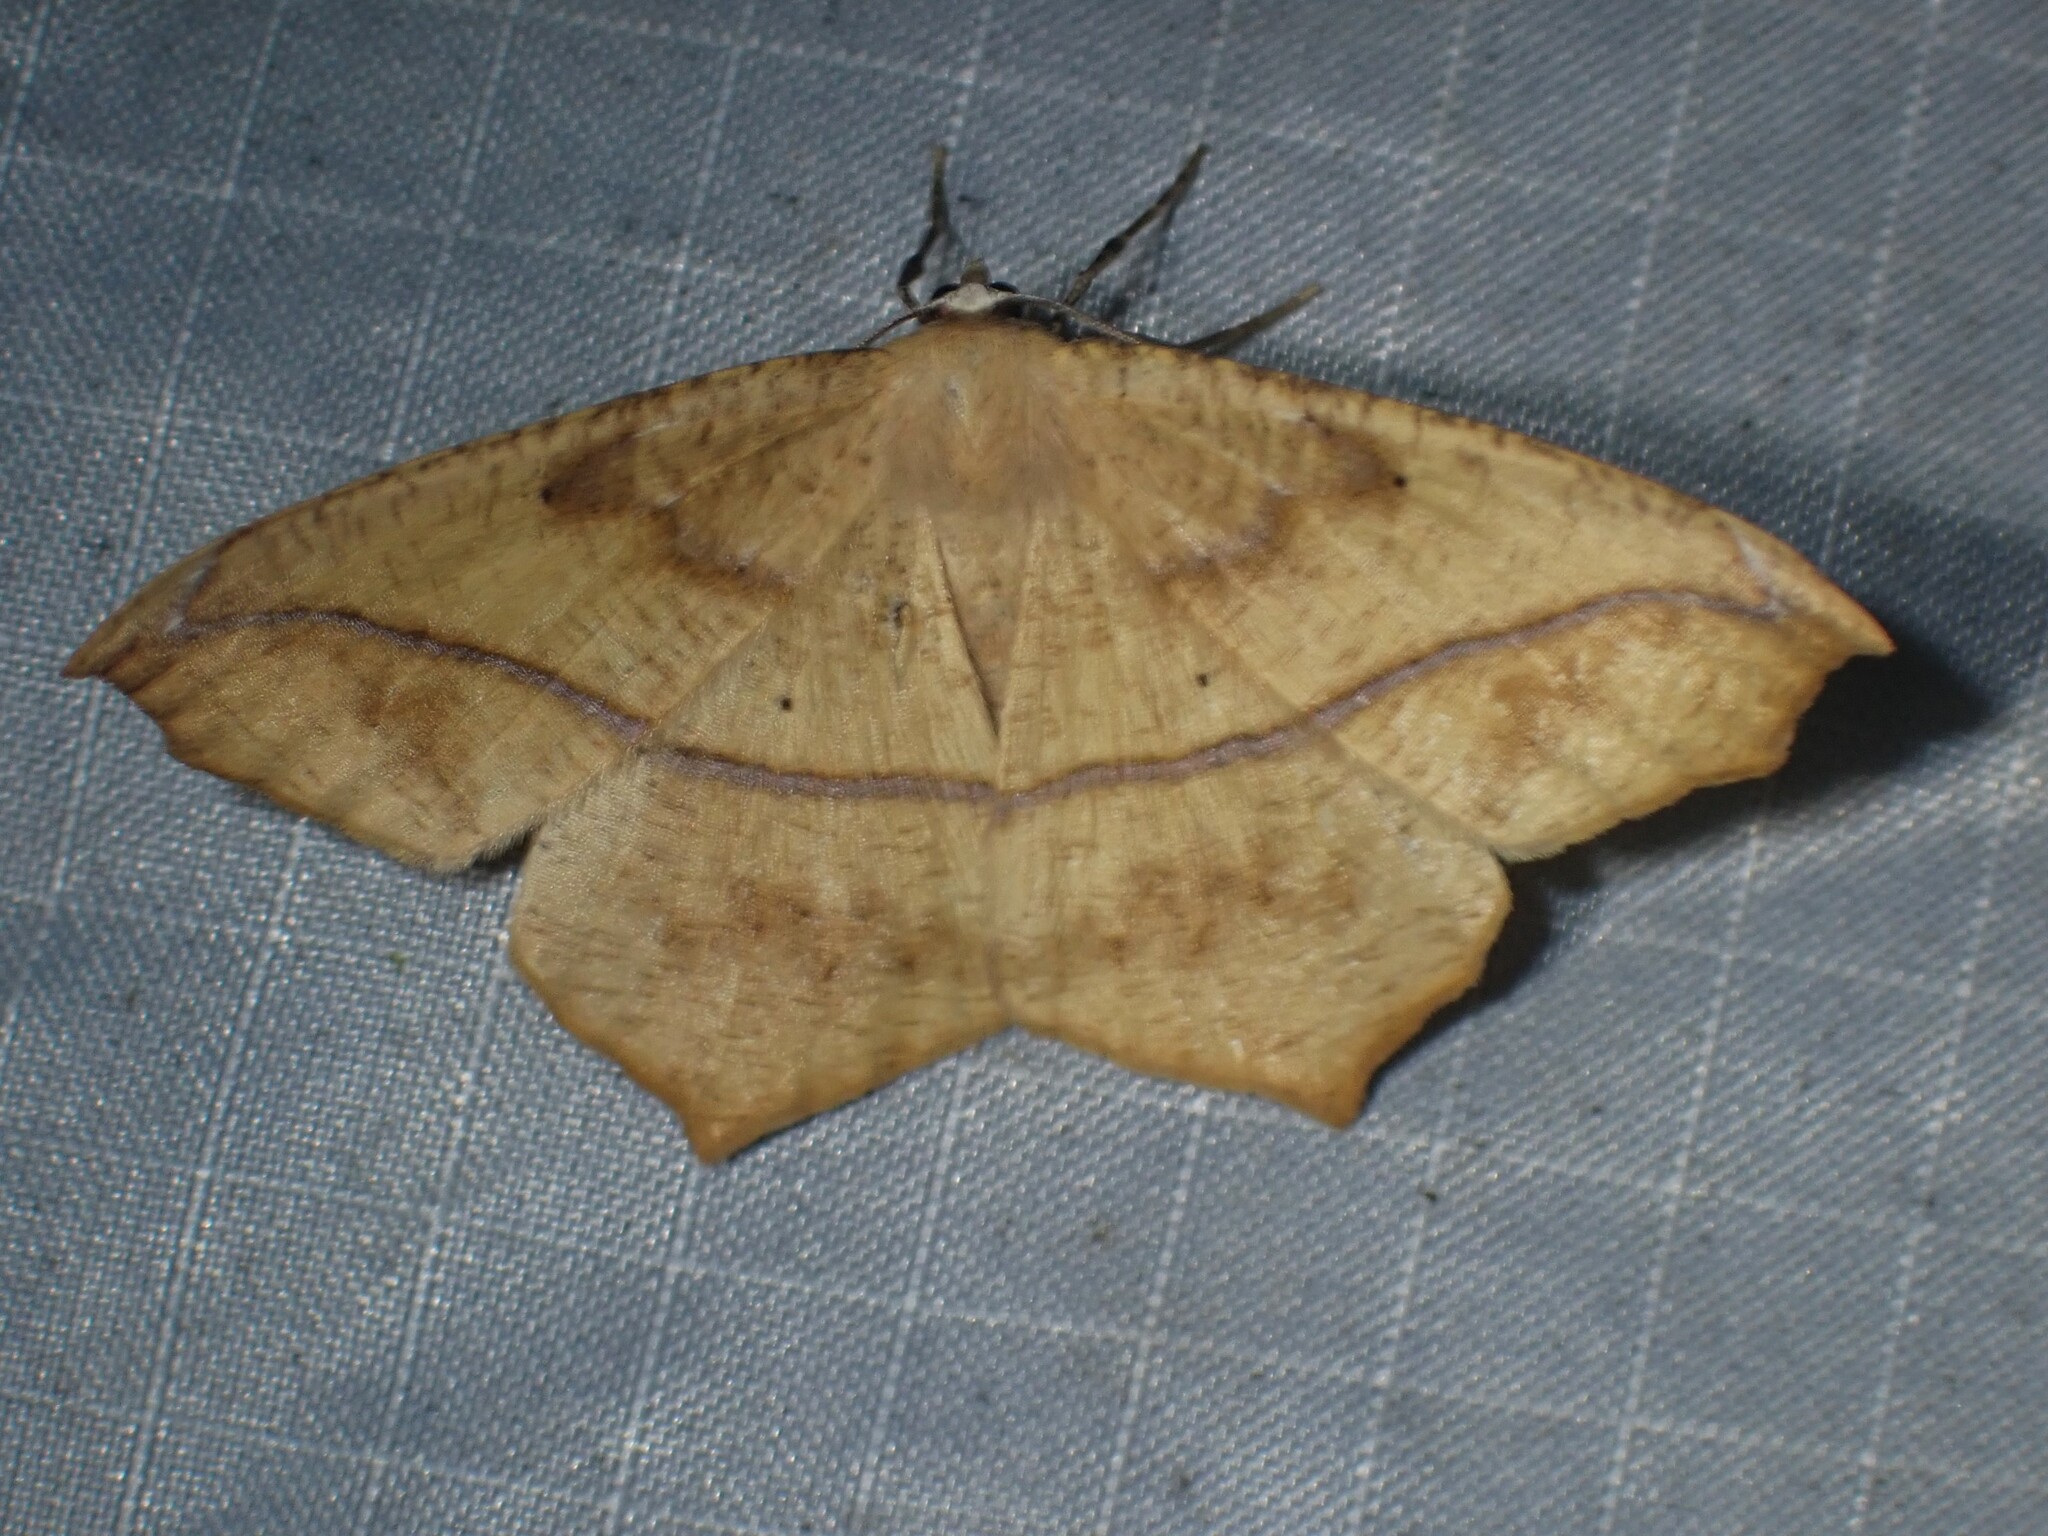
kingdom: Animalia
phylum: Arthropoda
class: Insecta
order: Lepidoptera
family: Geometridae
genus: Prochoerodes
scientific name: Prochoerodes lineola
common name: Large maple spanworm
